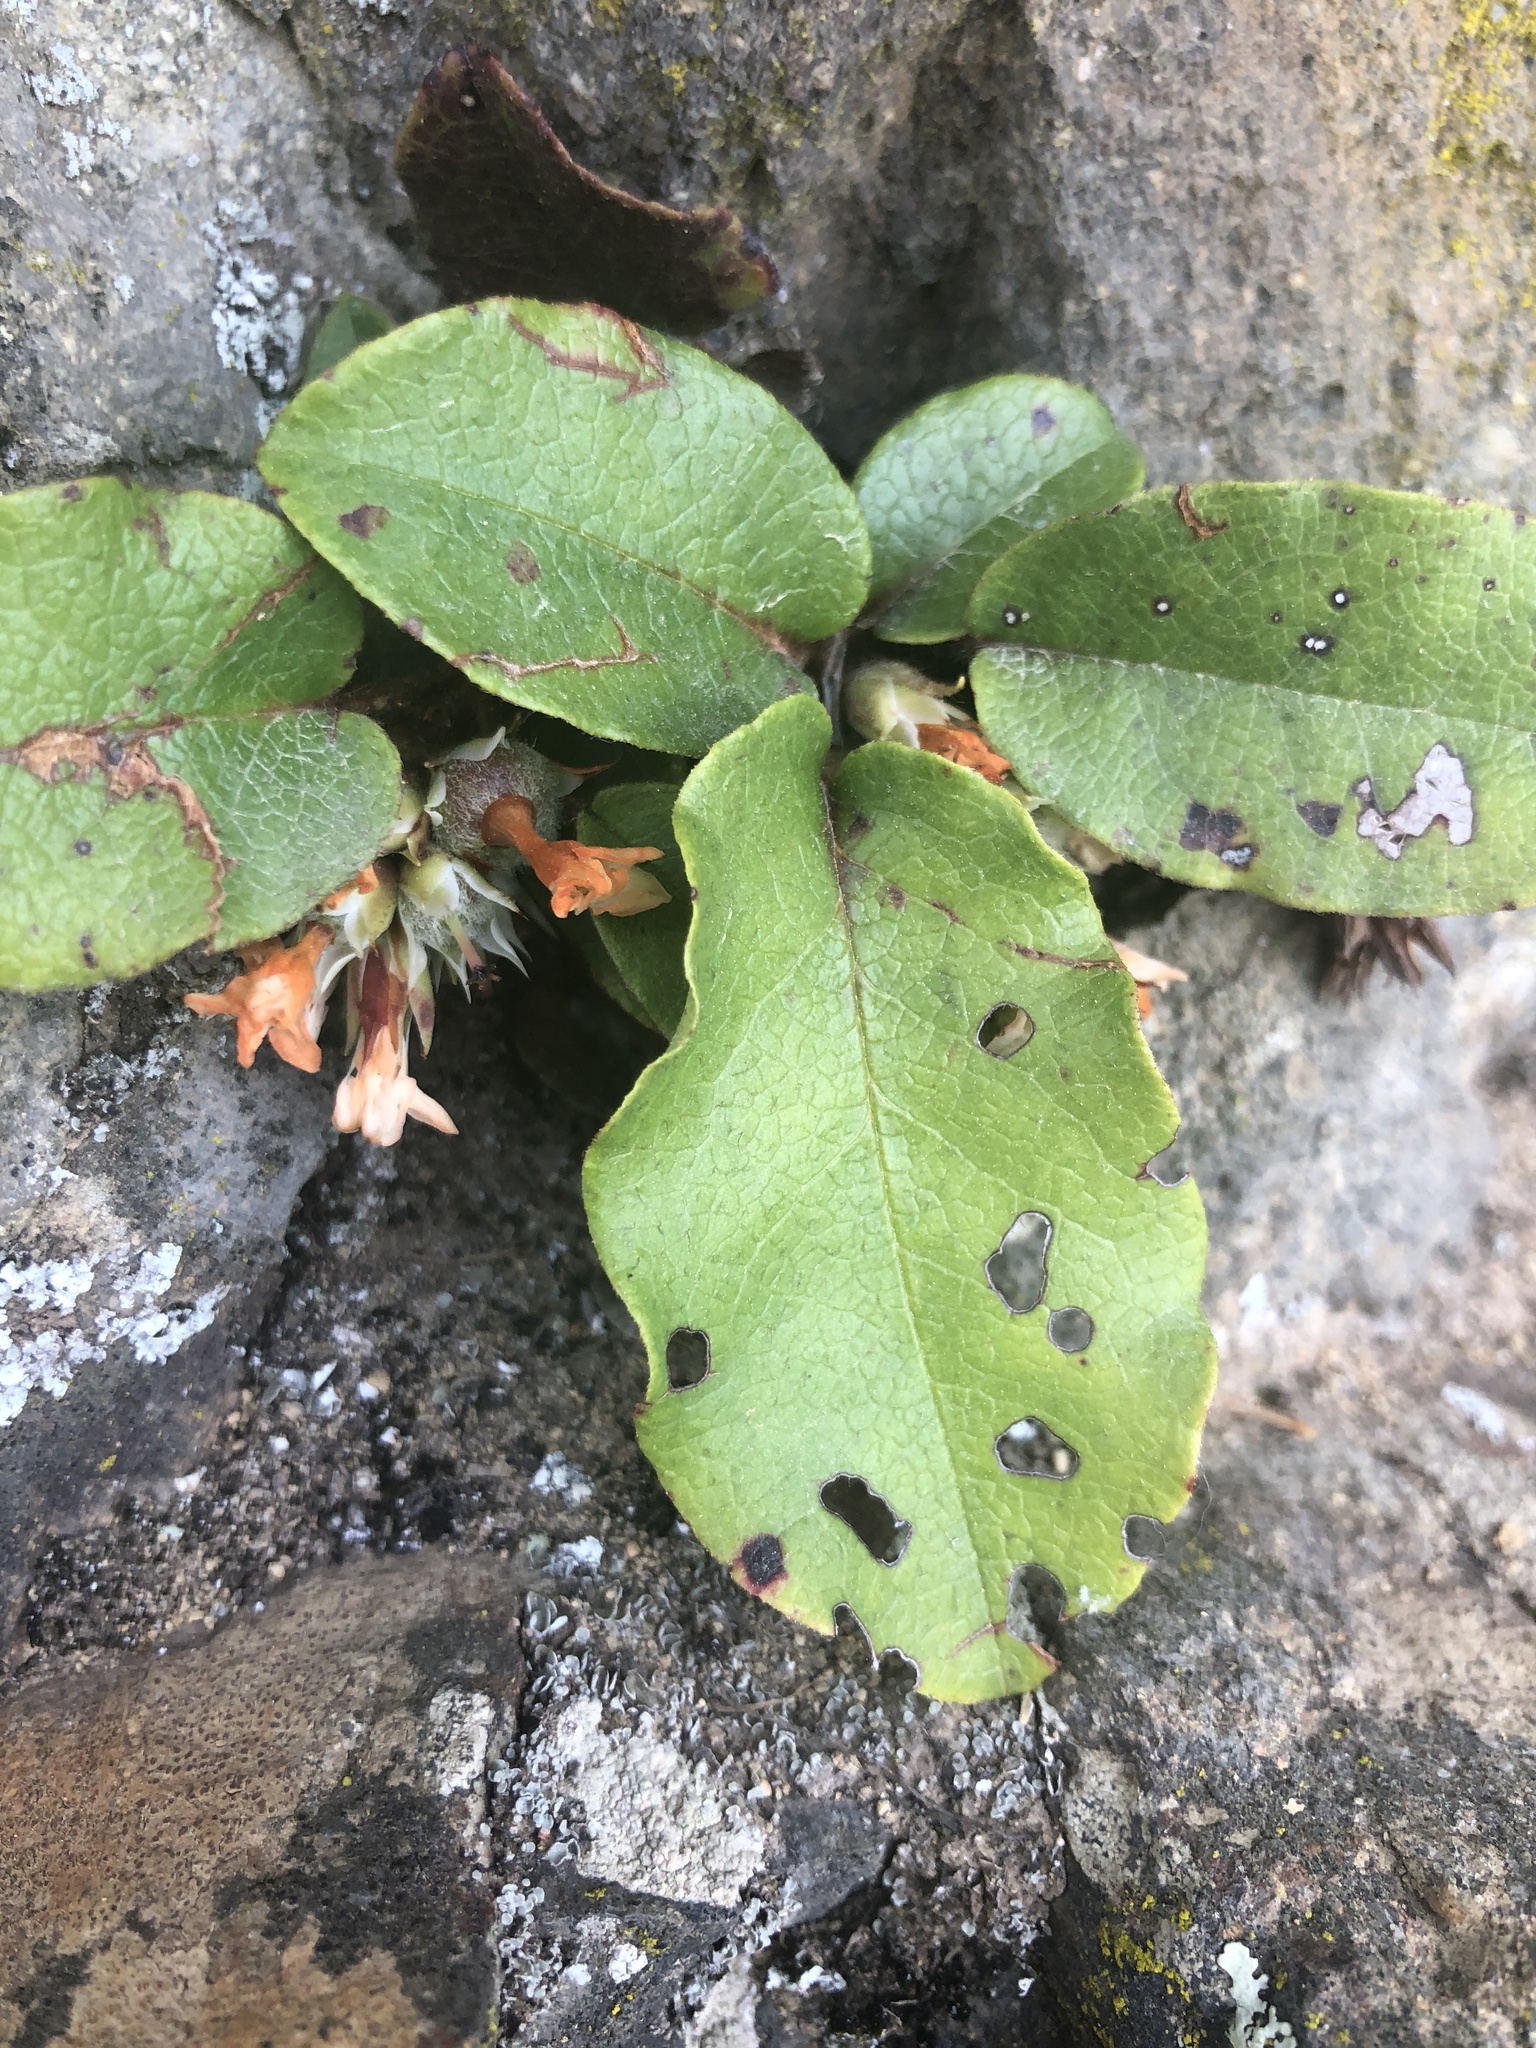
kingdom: Plantae
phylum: Tracheophyta
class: Magnoliopsida
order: Ericales
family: Ericaceae
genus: Epigaea
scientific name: Epigaea repens
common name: Gravelroot
